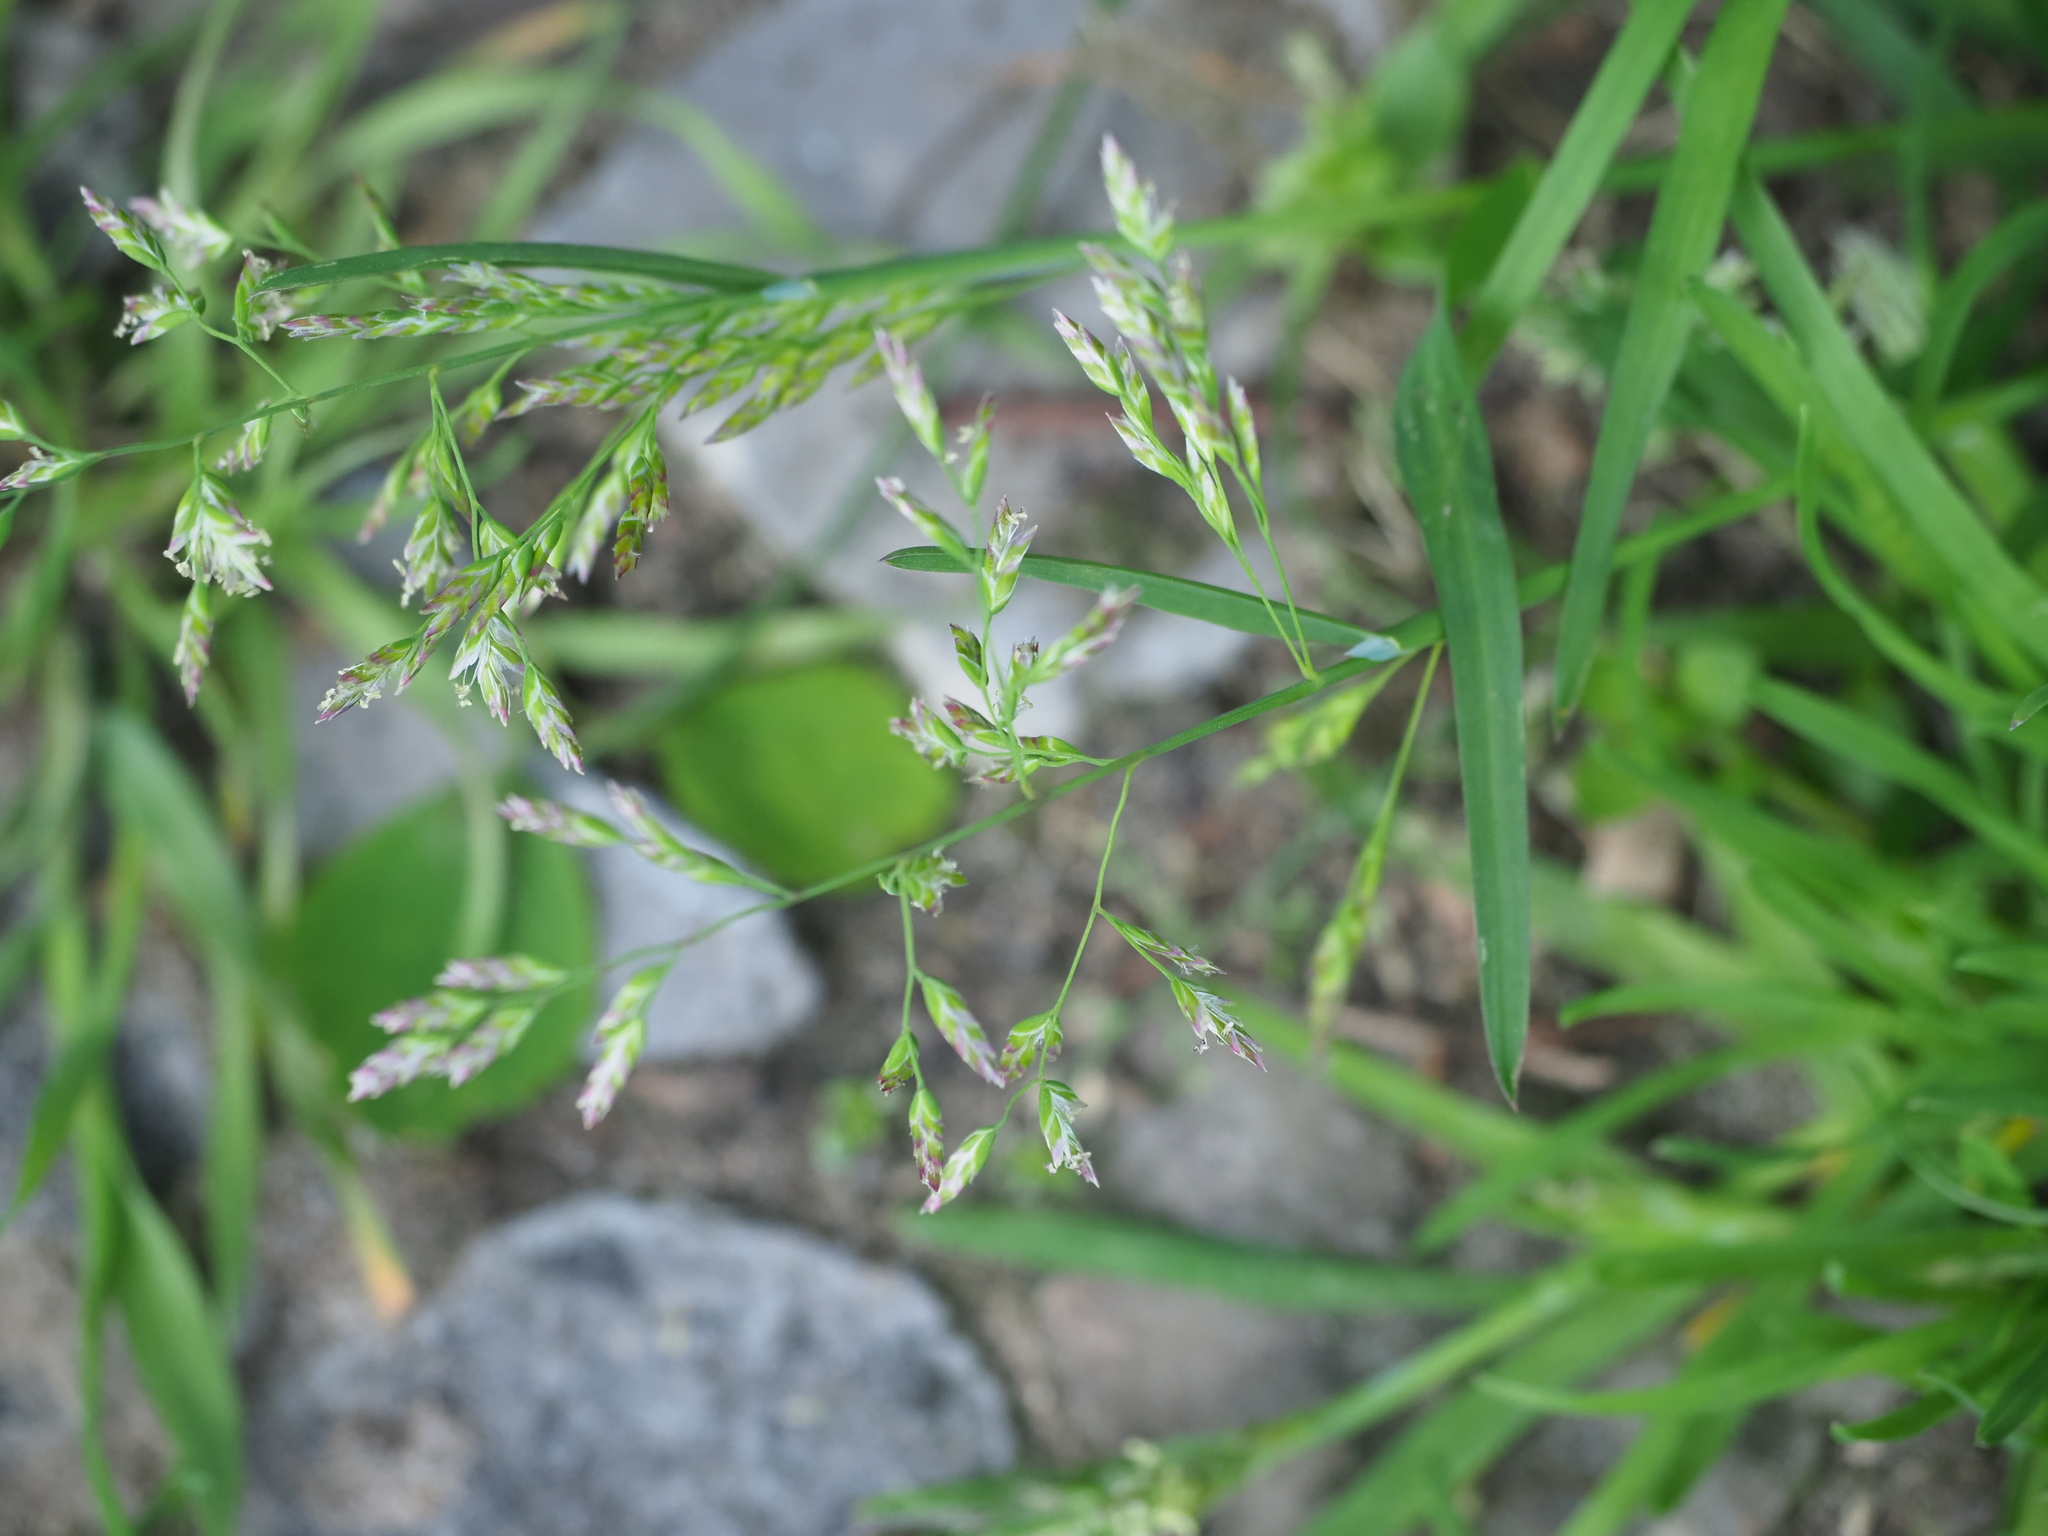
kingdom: Plantae
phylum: Tracheophyta
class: Liliopsida
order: Poales
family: Poaceae
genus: Poa
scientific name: Poa annua
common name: Annual bluegrass
